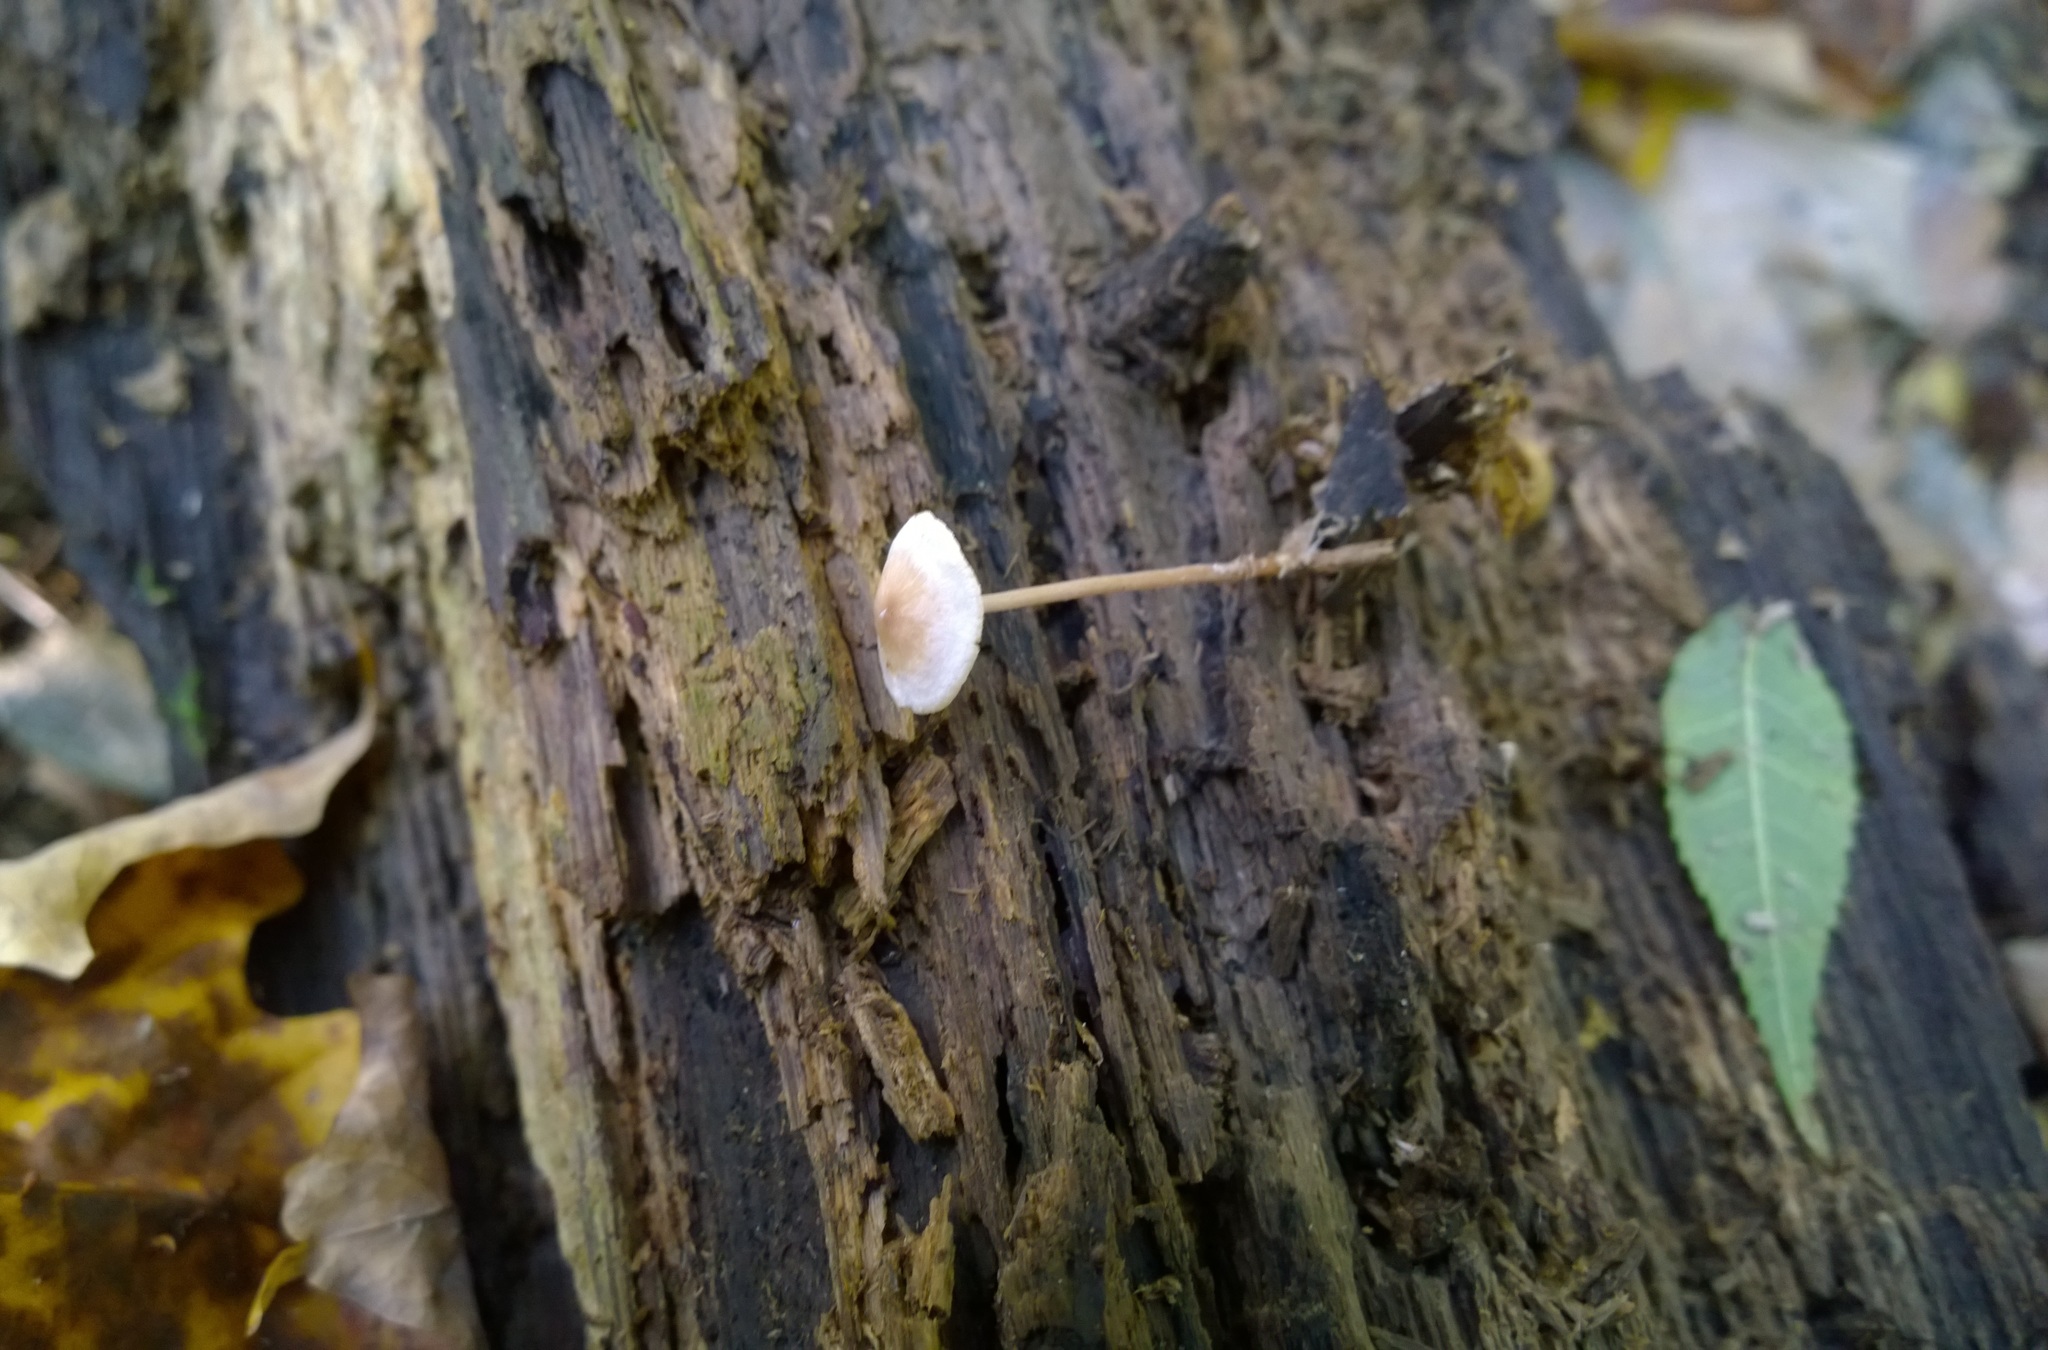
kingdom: Fungi
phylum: Basidiomycota
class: Agaricomycetes
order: Agaricales
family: Tricholomataceae
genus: Collybia
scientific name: Collybia cookei
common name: Splitpea shanklet
